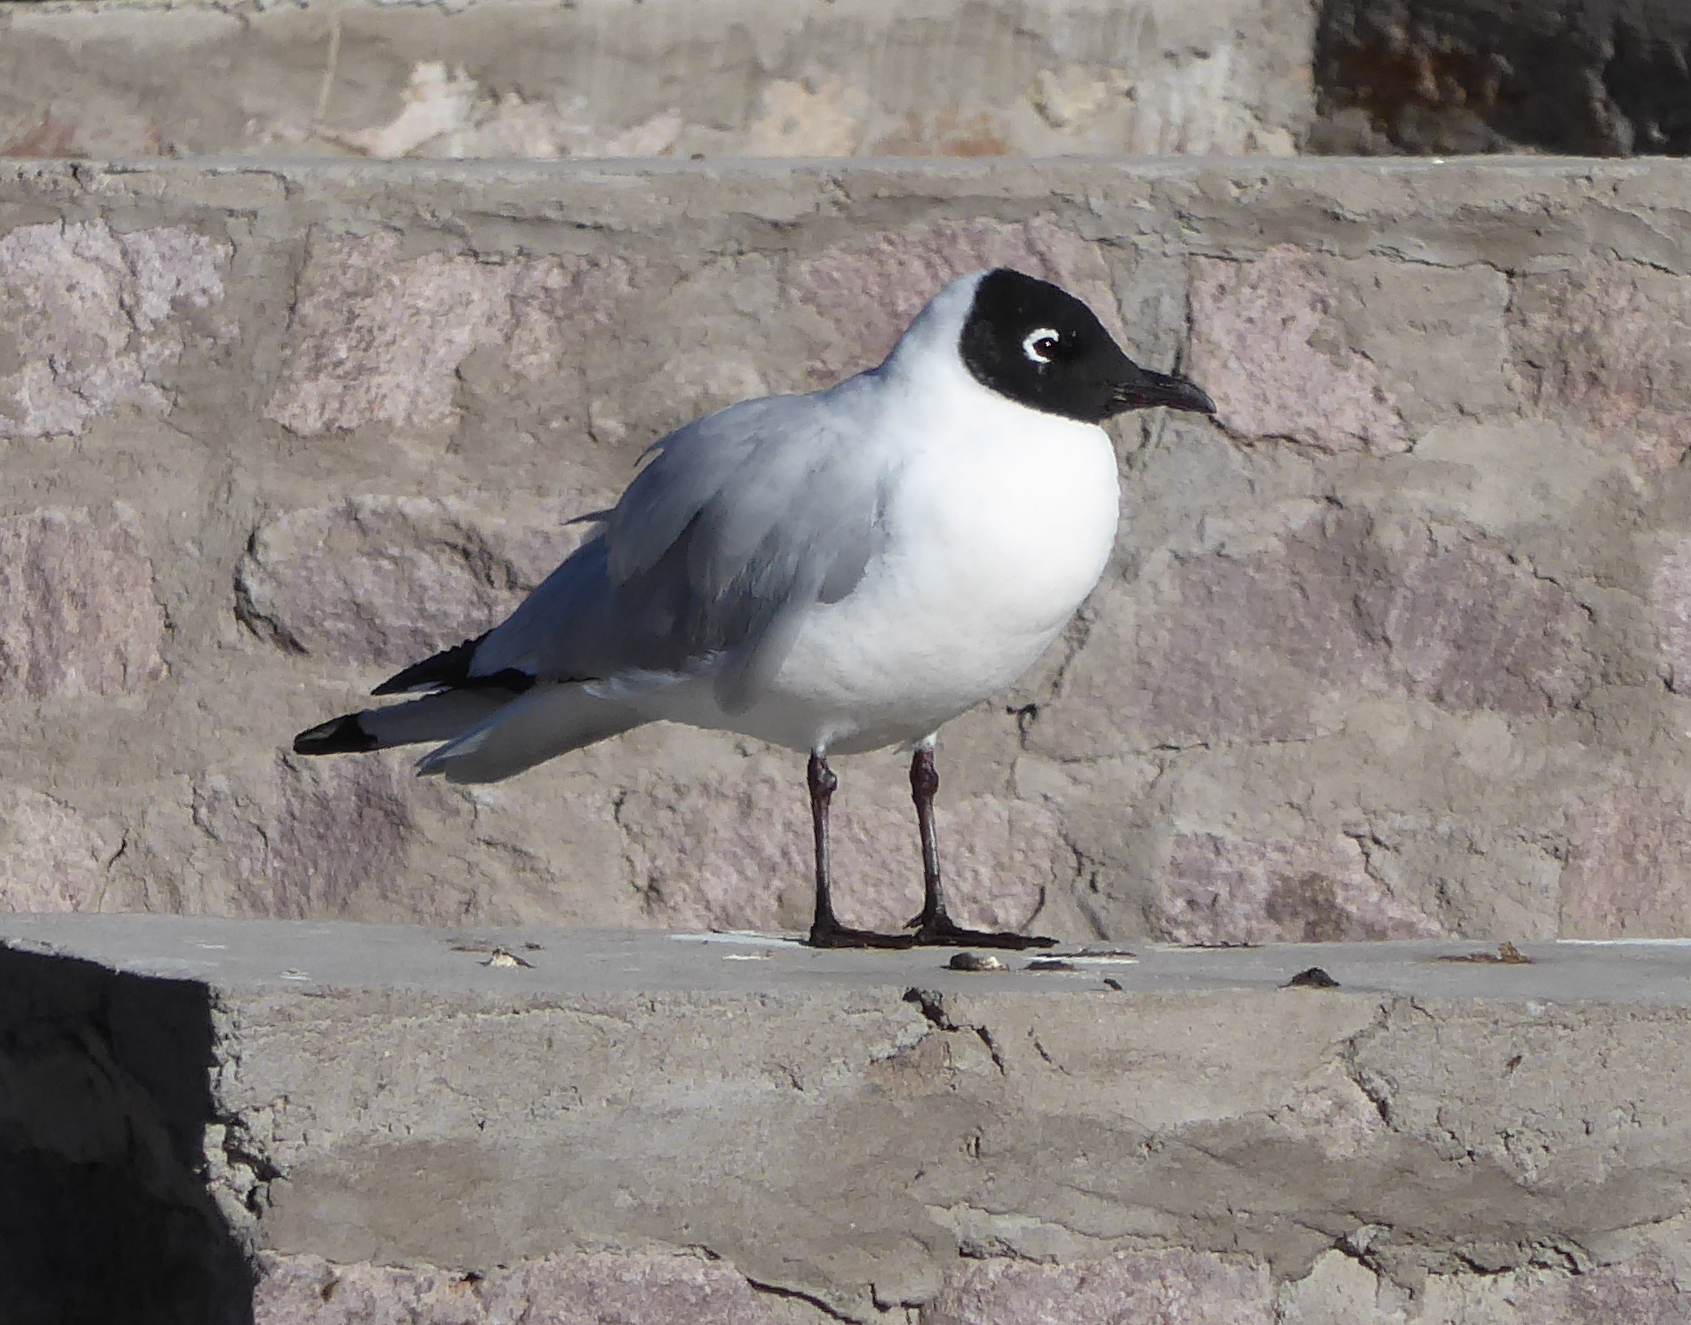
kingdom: Animalia
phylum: Chordata
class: Aves
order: Charadriiformes
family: Laridae
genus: Chroicocephalus
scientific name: Chroicocephalus serranus
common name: Andean gull
